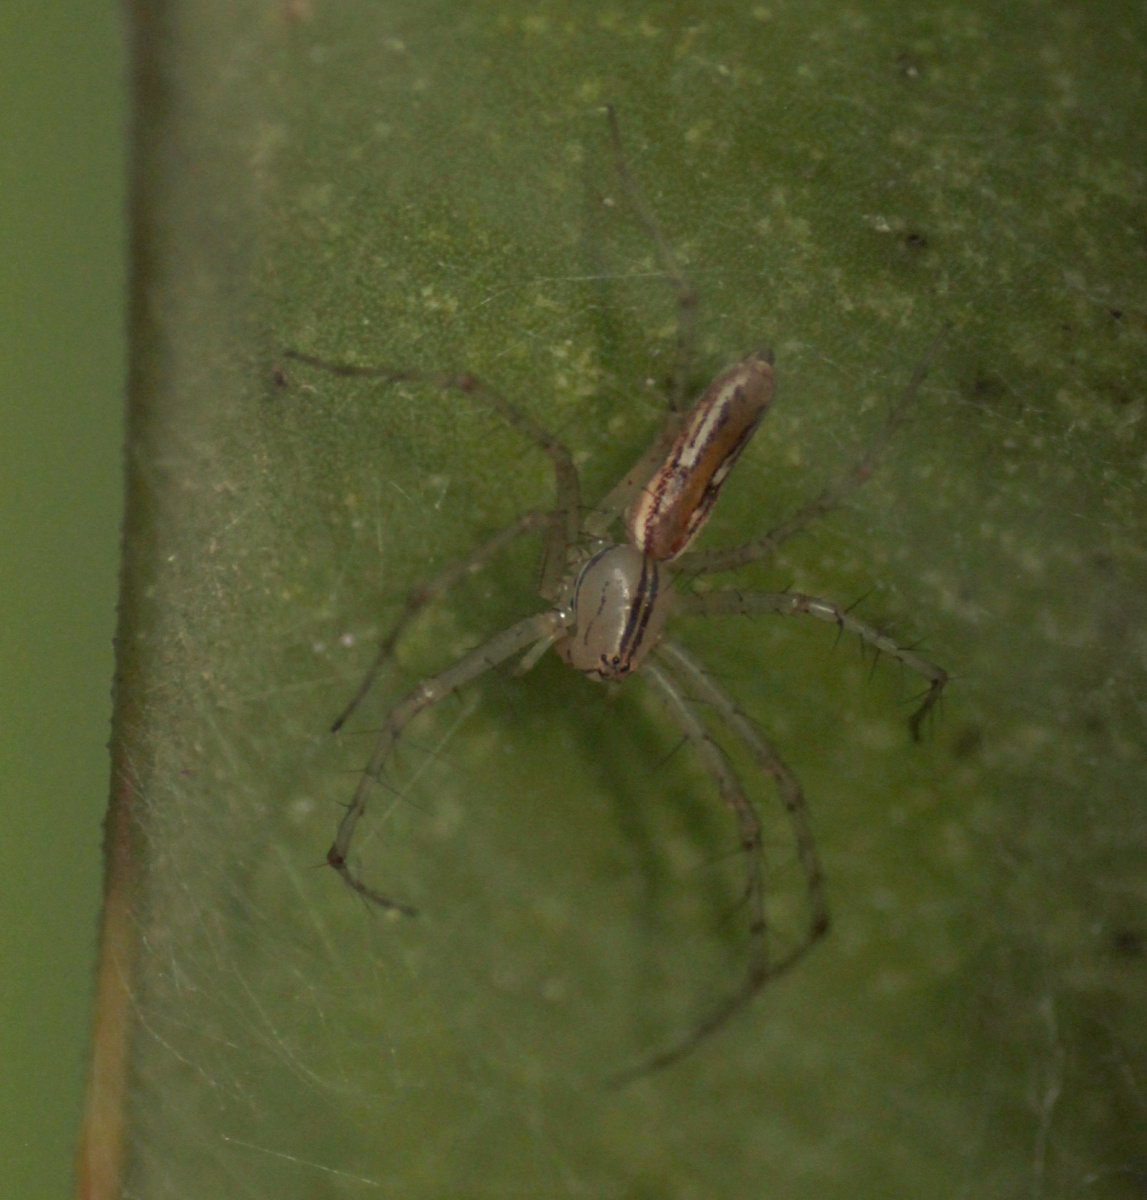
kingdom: Animalia
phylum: Arthropoda
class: Arachnida
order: Araneae
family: Oxyopidae
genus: Peucetia
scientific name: Peucetia rubrolineata
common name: Lynx spiders
